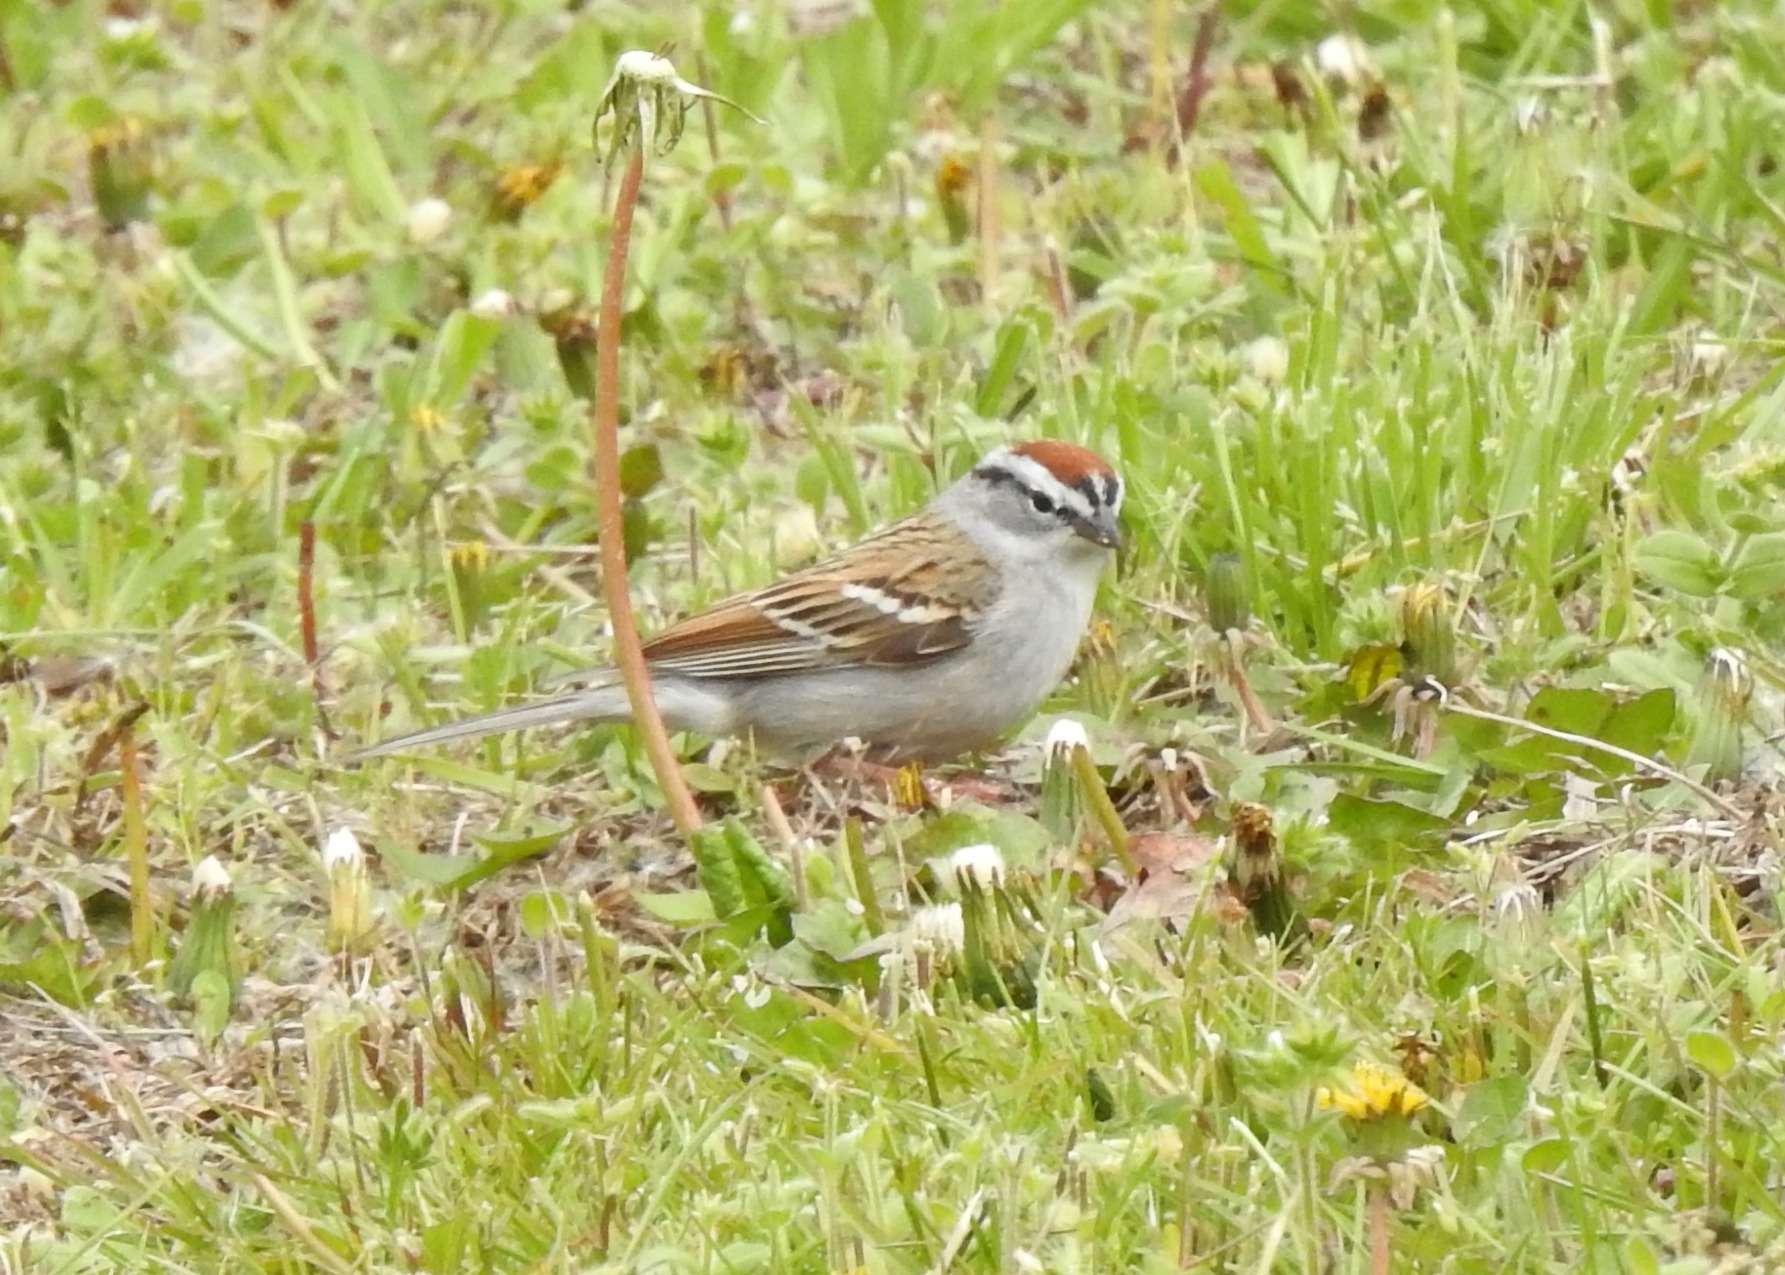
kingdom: Animalia
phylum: Chordata
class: Aves
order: Passeriformes
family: Passerellidae
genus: Spizella
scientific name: Spizella passerina
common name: Chipping sparrow
